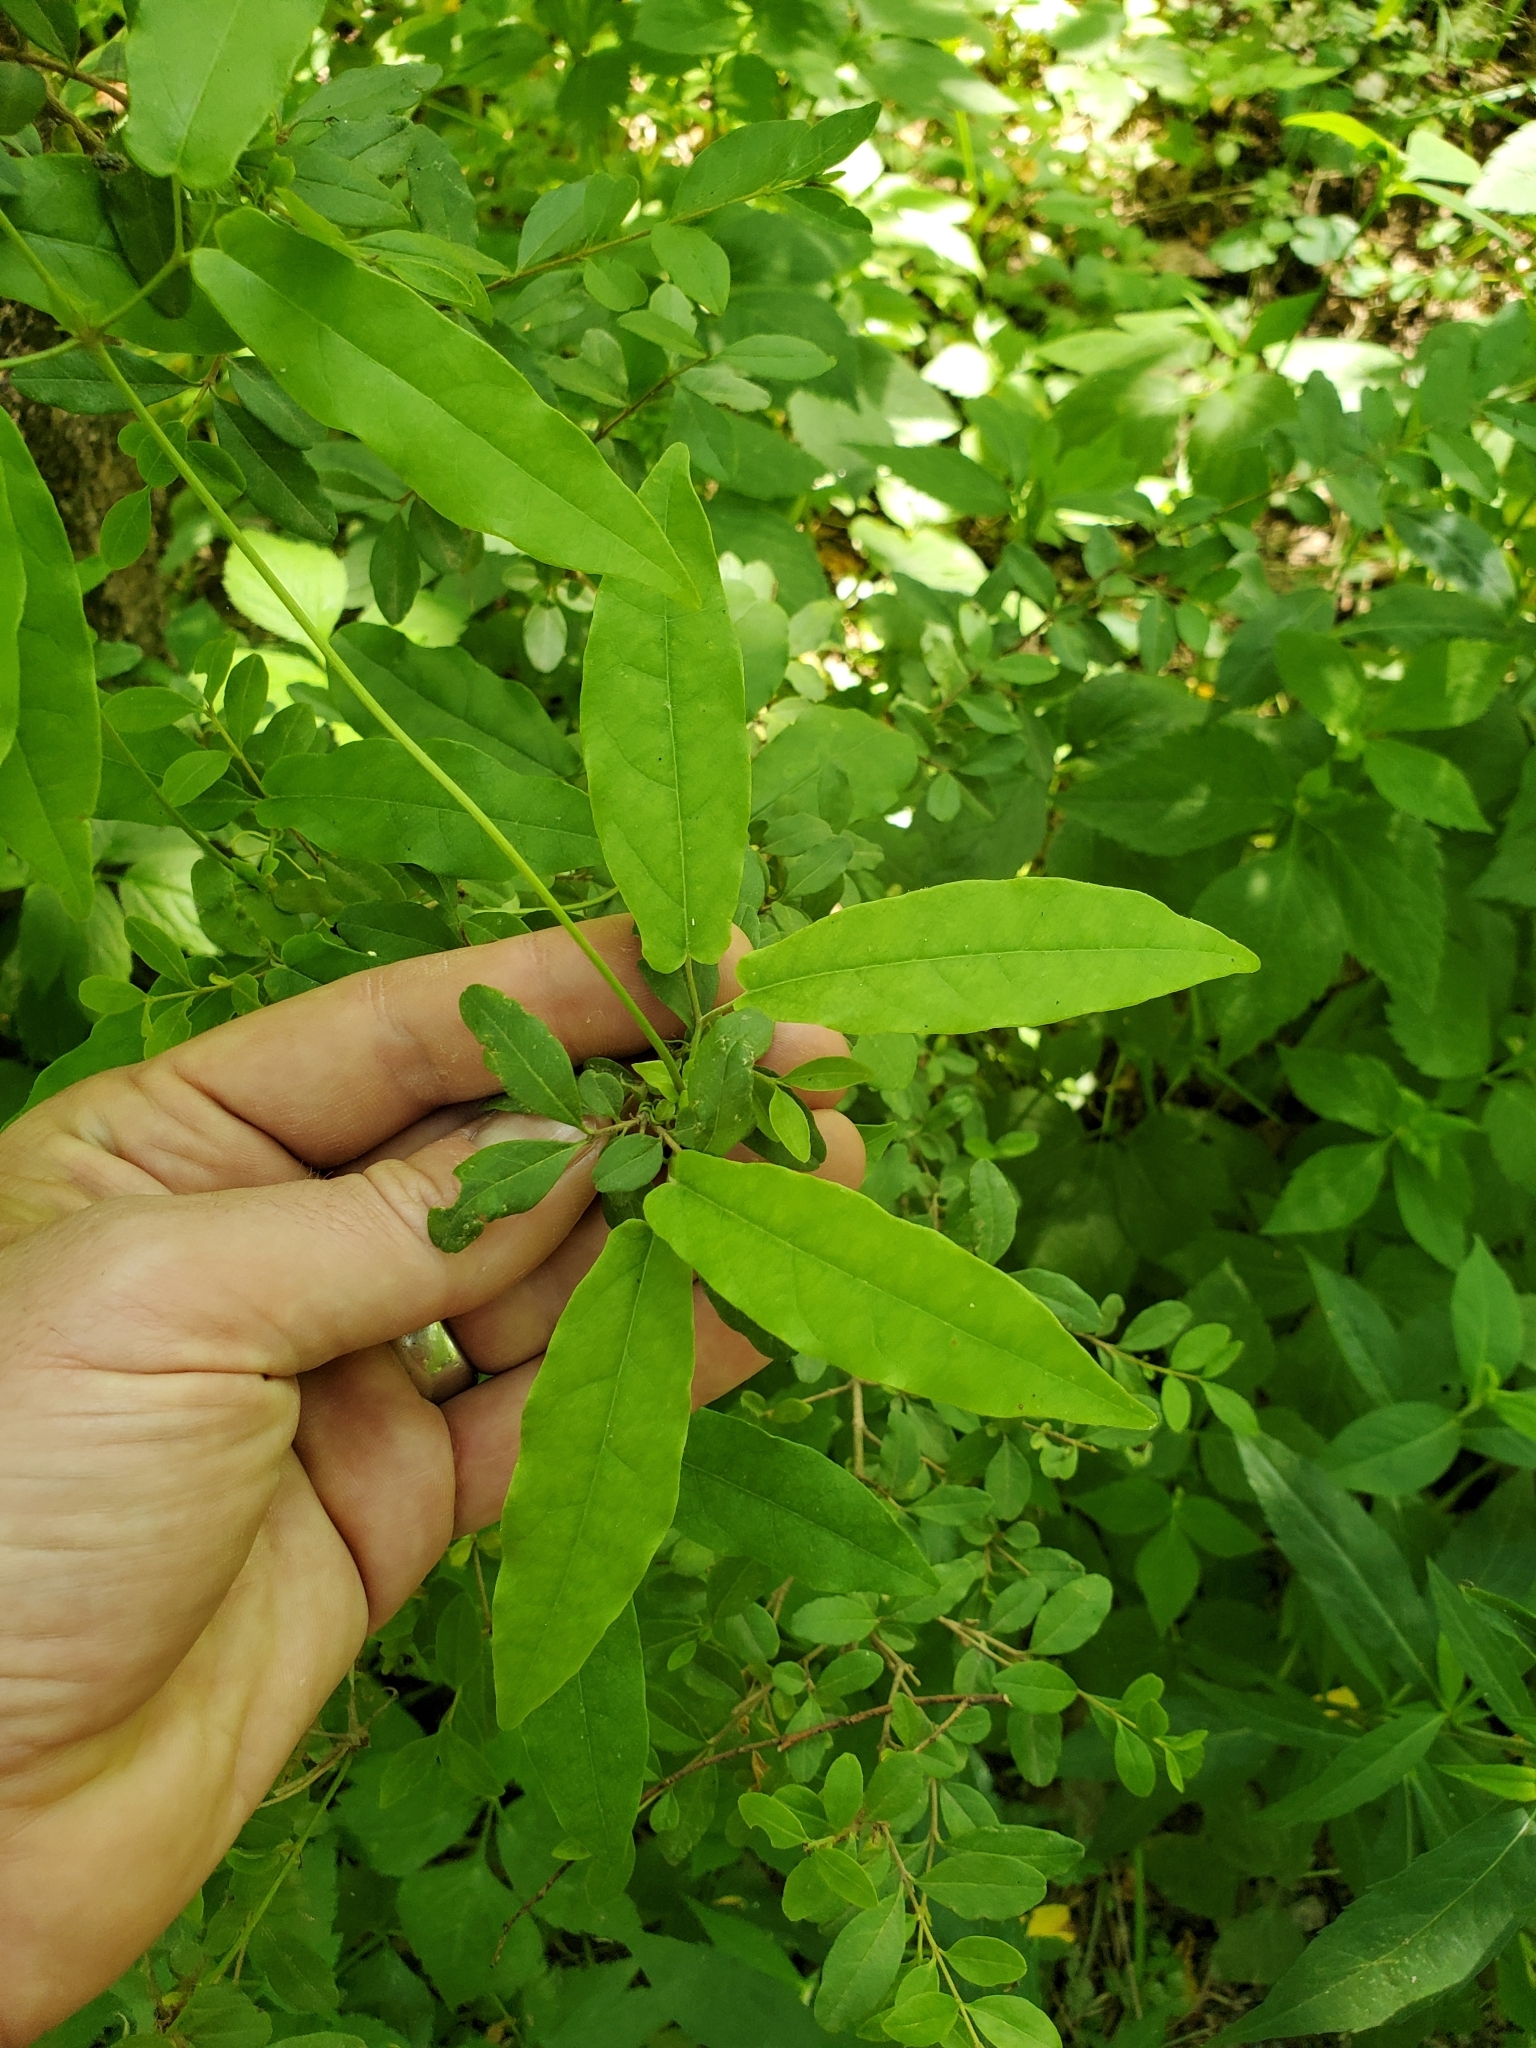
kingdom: Plantae
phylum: Tracheophyta
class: Magnoliopsida
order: Lamiales
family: Bignoniaceae
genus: Bignonia
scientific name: Bignonia capreolata
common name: Crossvine
